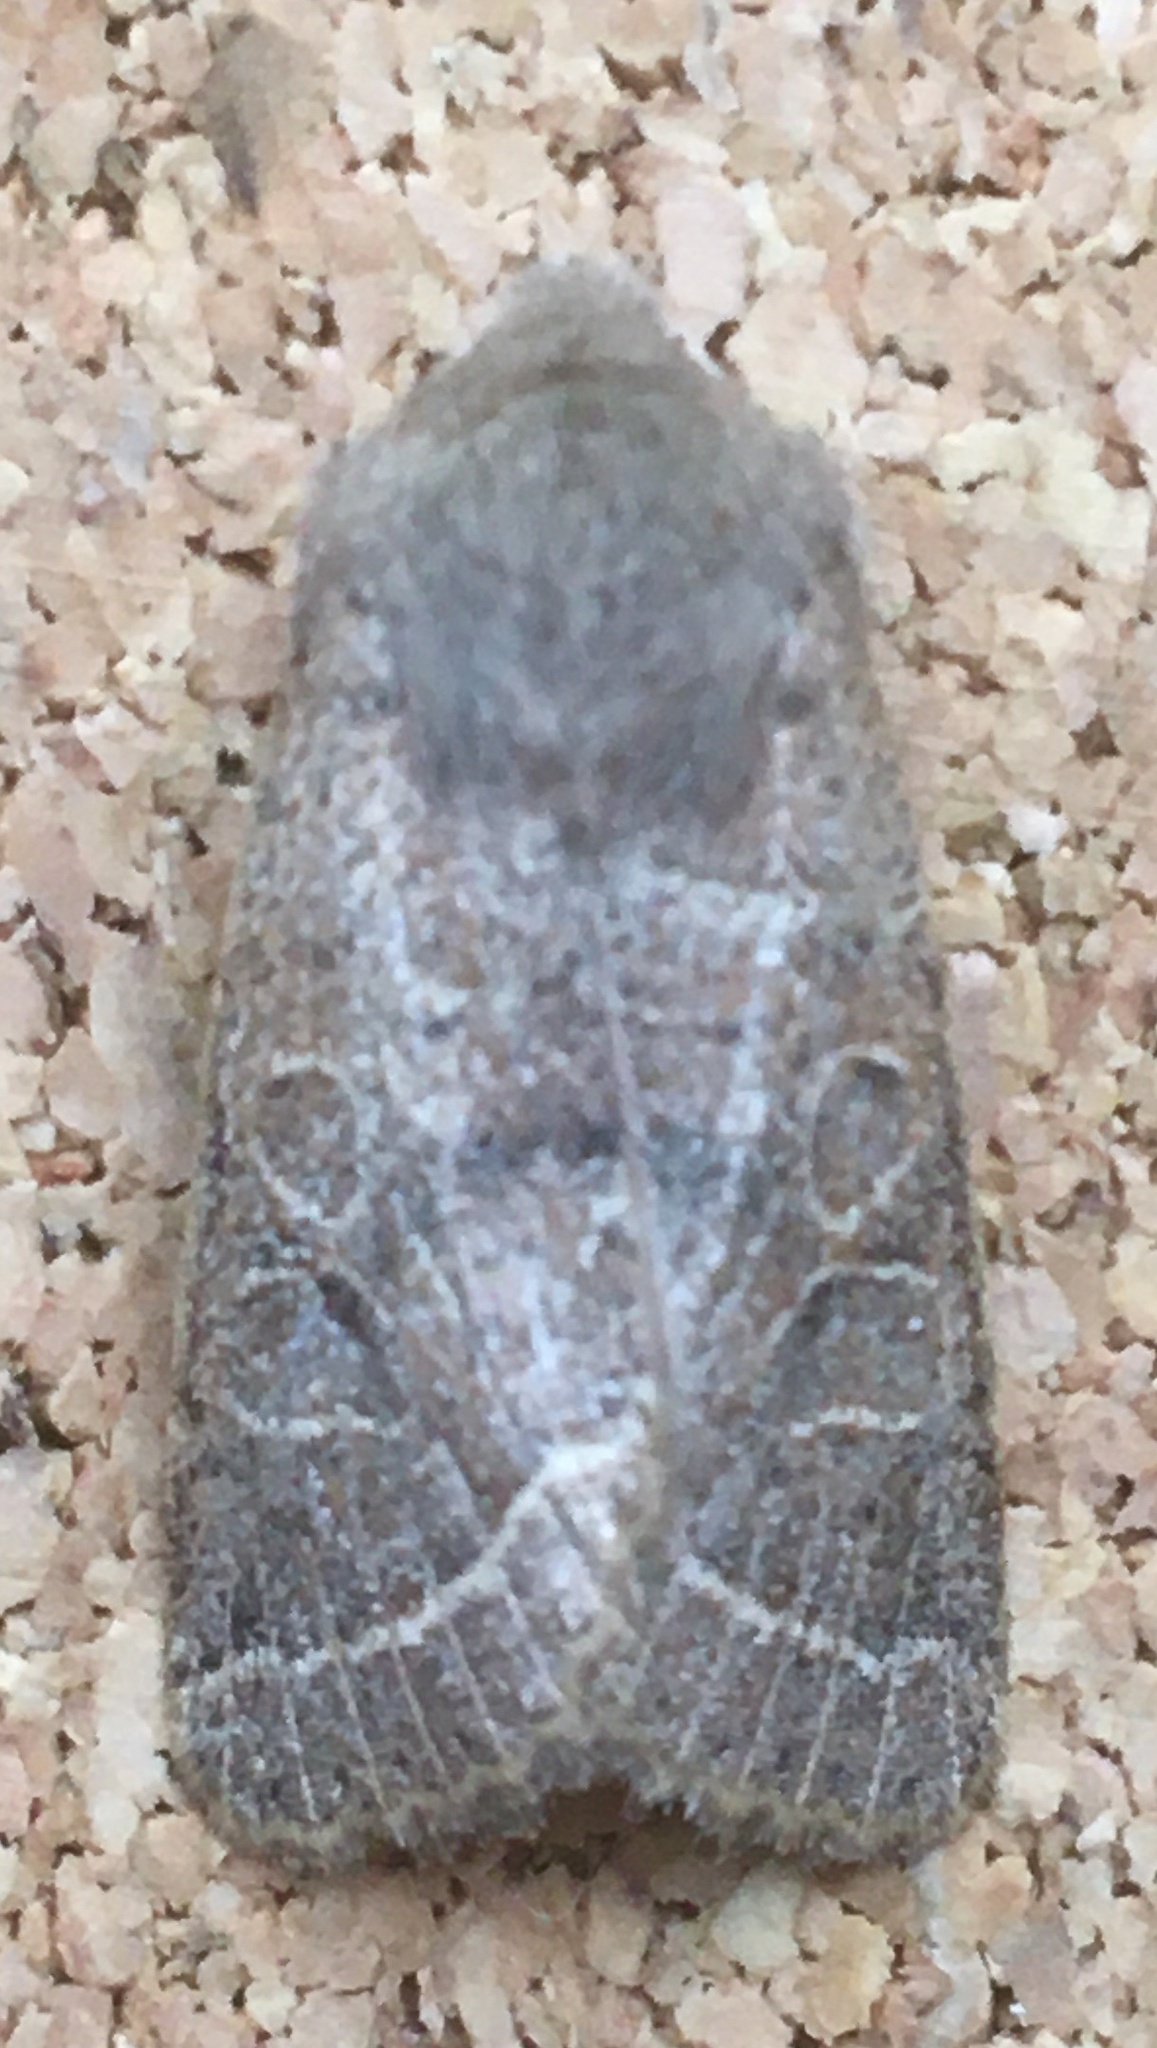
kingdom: Animalia
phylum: Arthropoda
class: Insecta
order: Lepidoptera
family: Noctuidae
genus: Orthosia
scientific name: Orthosia cerasi
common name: Common quaker
